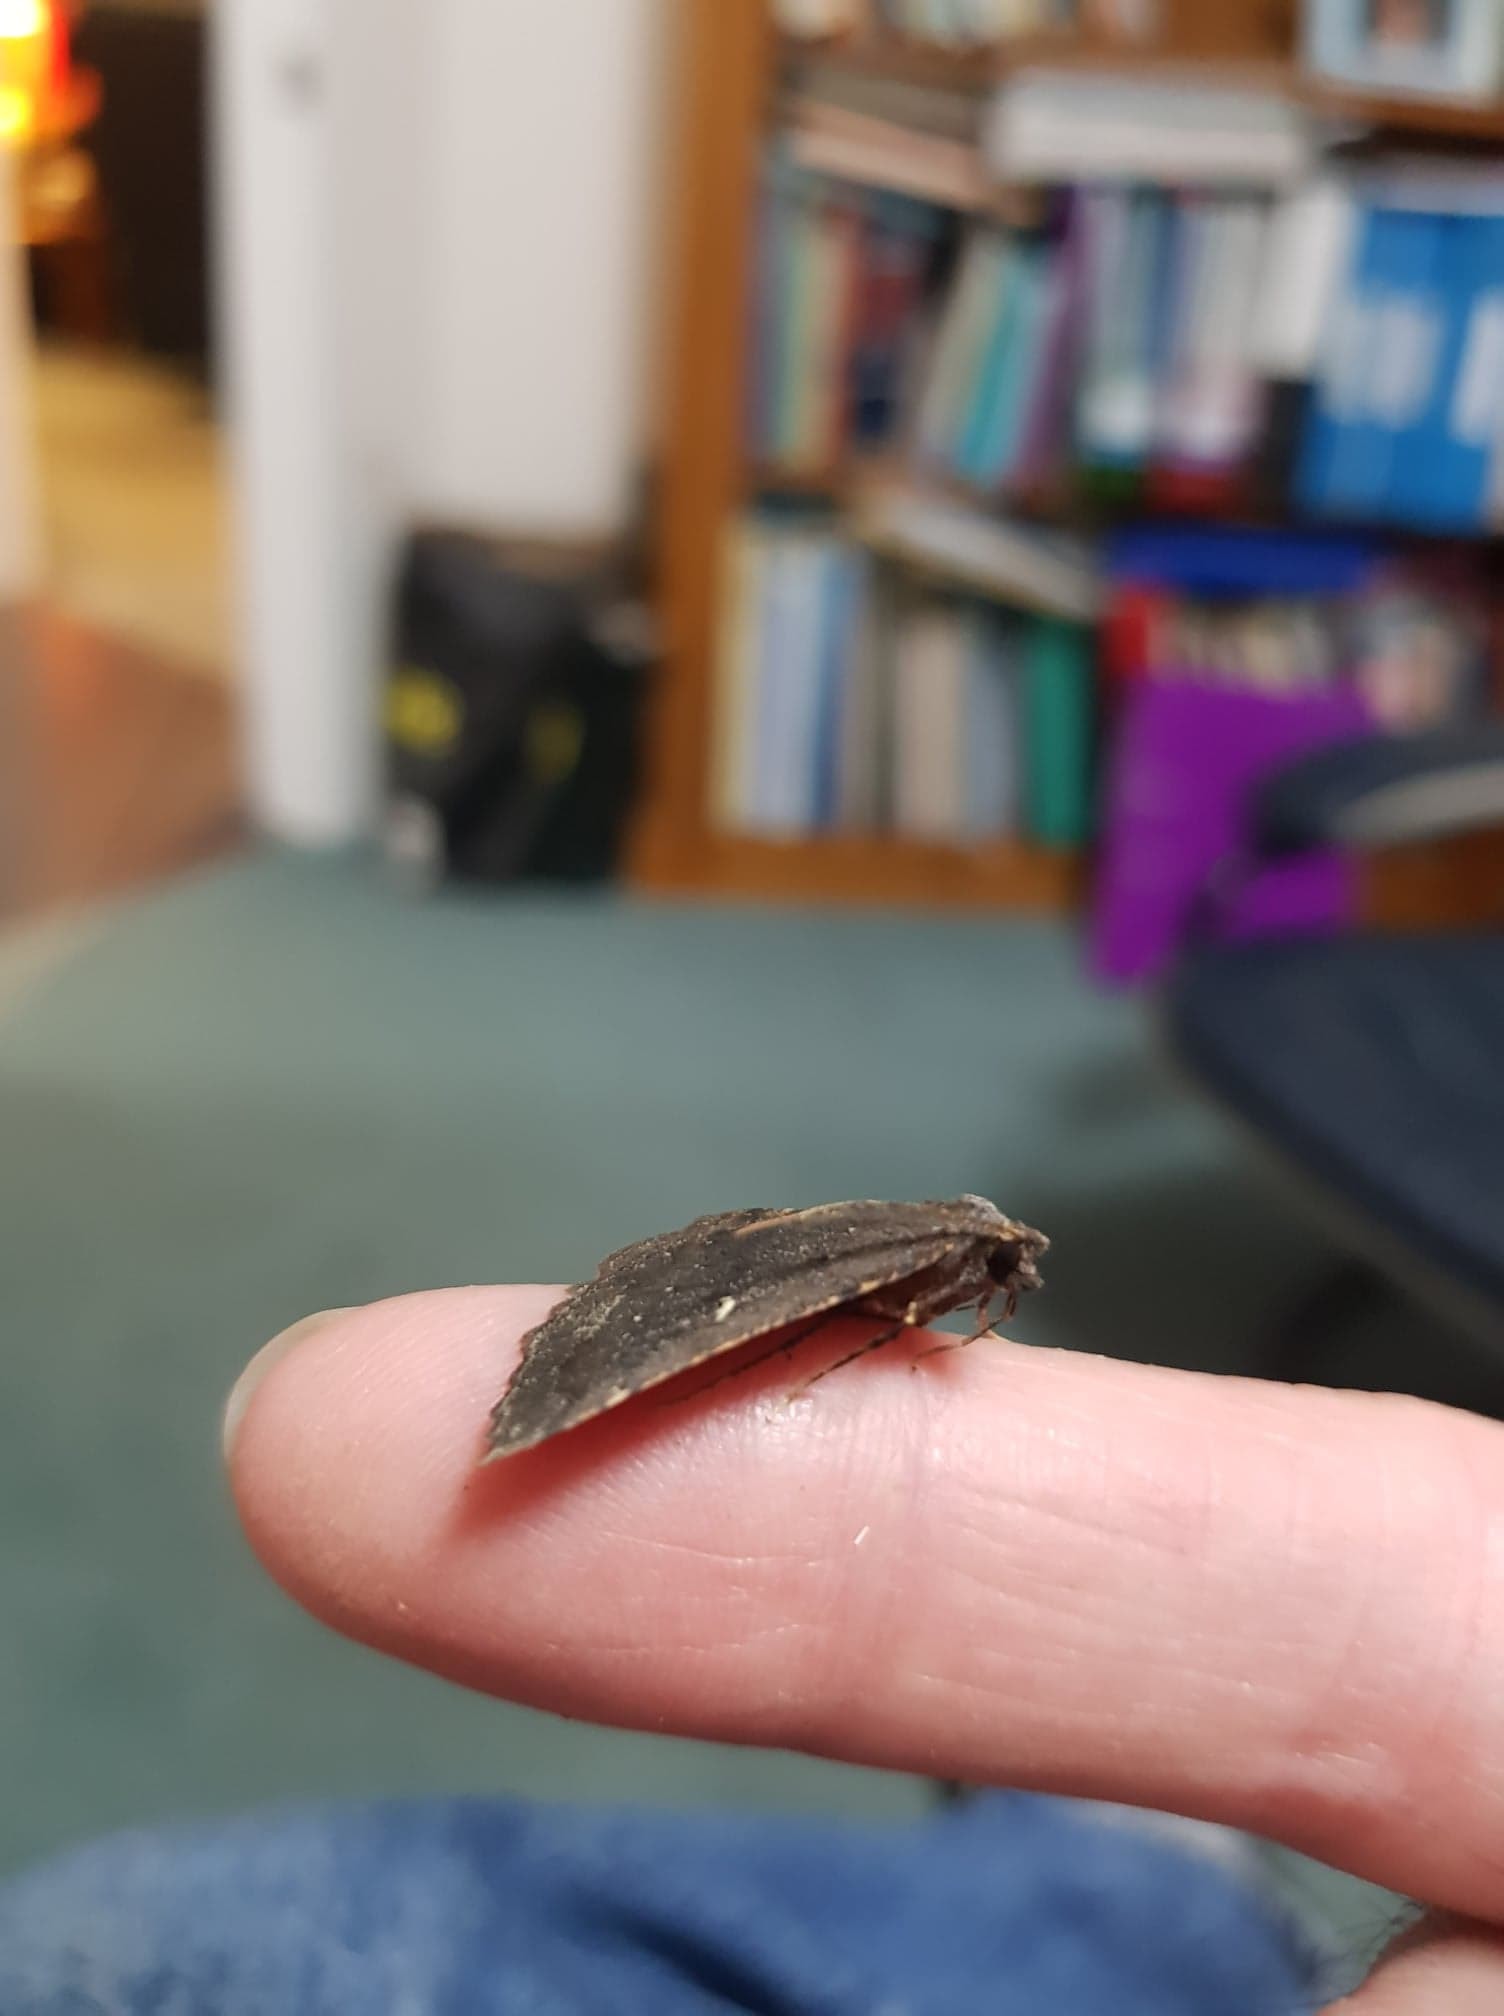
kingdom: Animalia
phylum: Arthropoda
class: Insecta
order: Lepidoptera
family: Geometridae
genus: Cleora
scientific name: Cleora scriptaria
